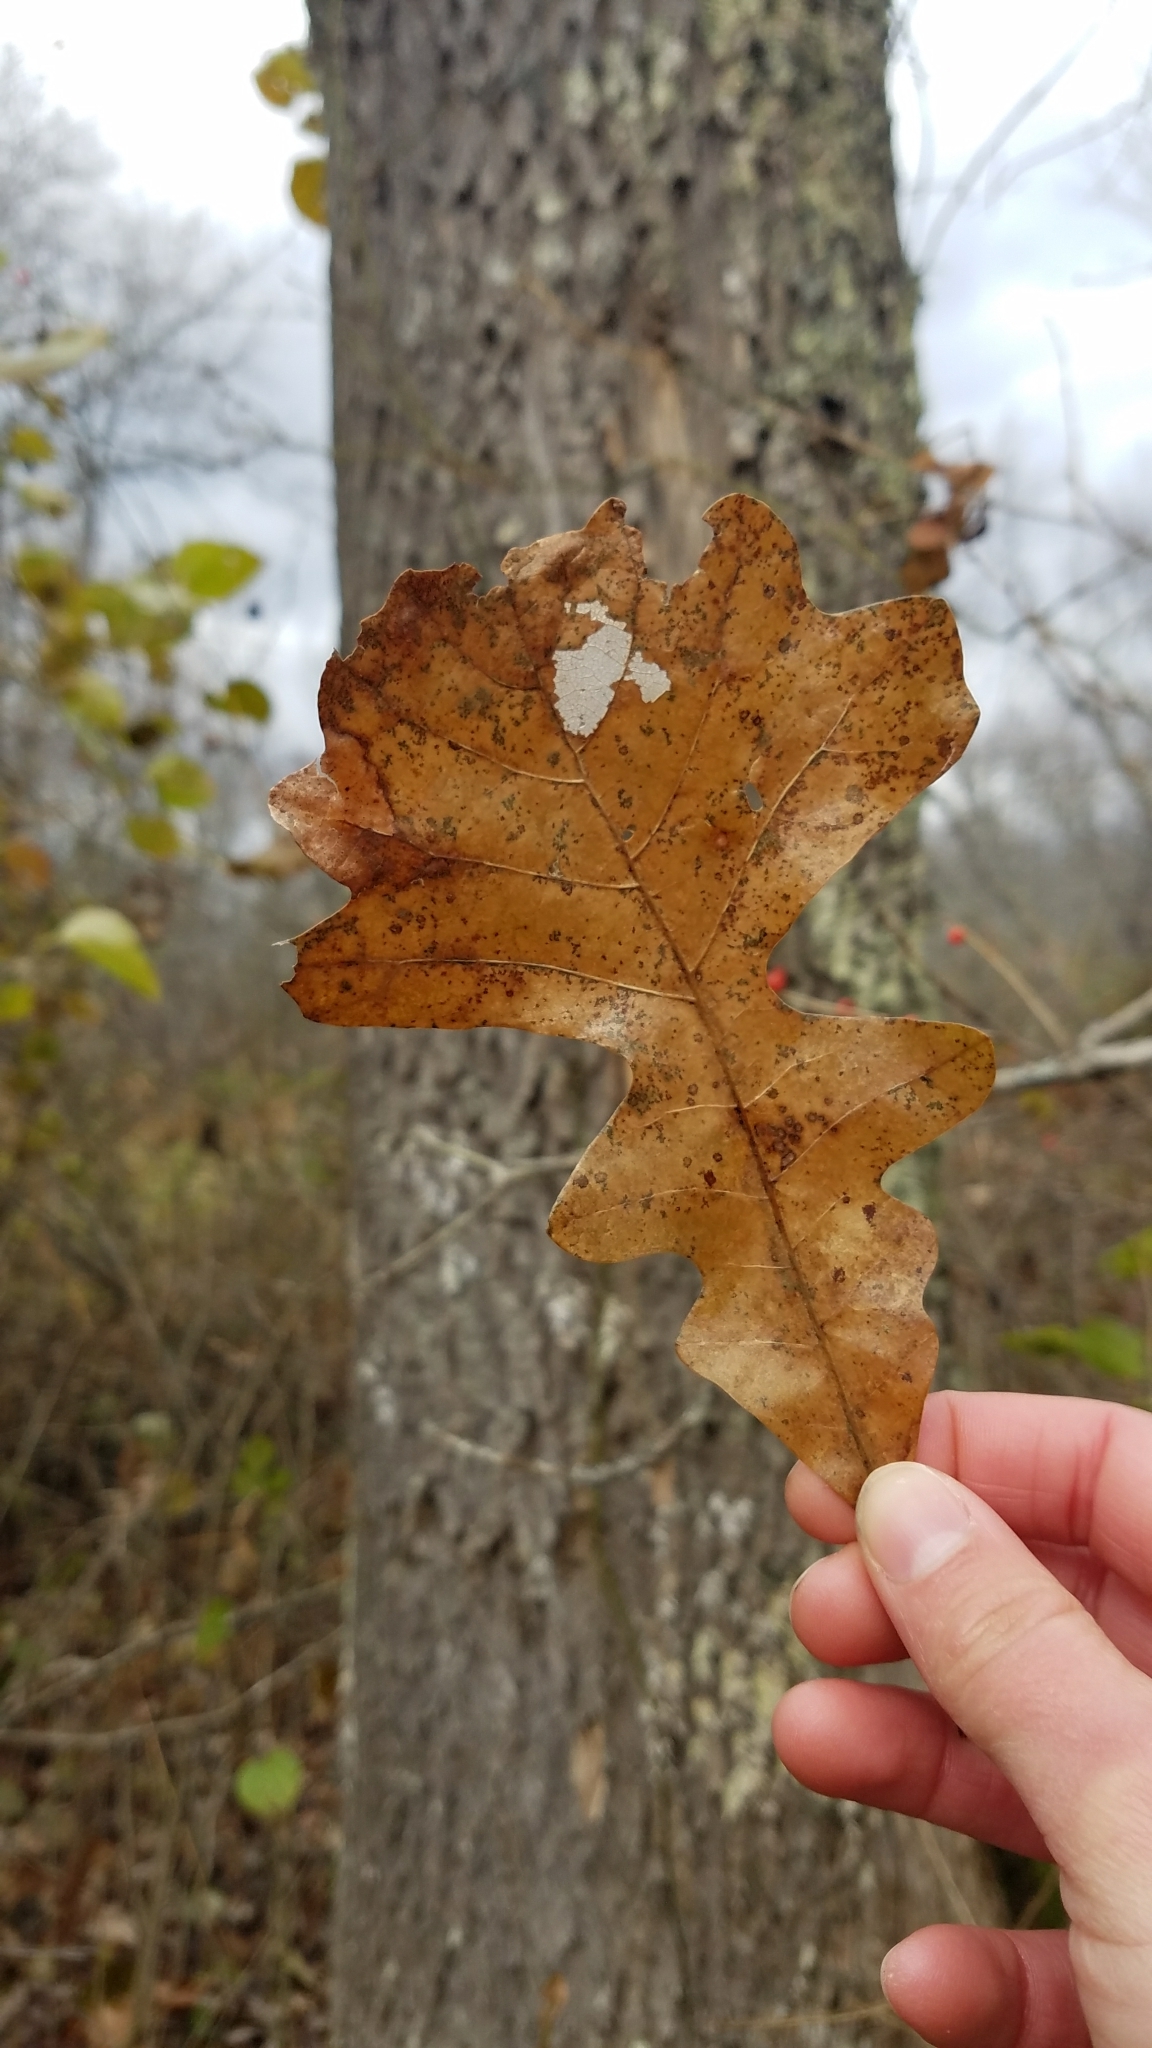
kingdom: Plantae
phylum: Tracheophyta
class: Magnoliopsida
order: Fagales
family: Fagaceae
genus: Quercus
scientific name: Quercus macrocarpa
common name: Bur oak
